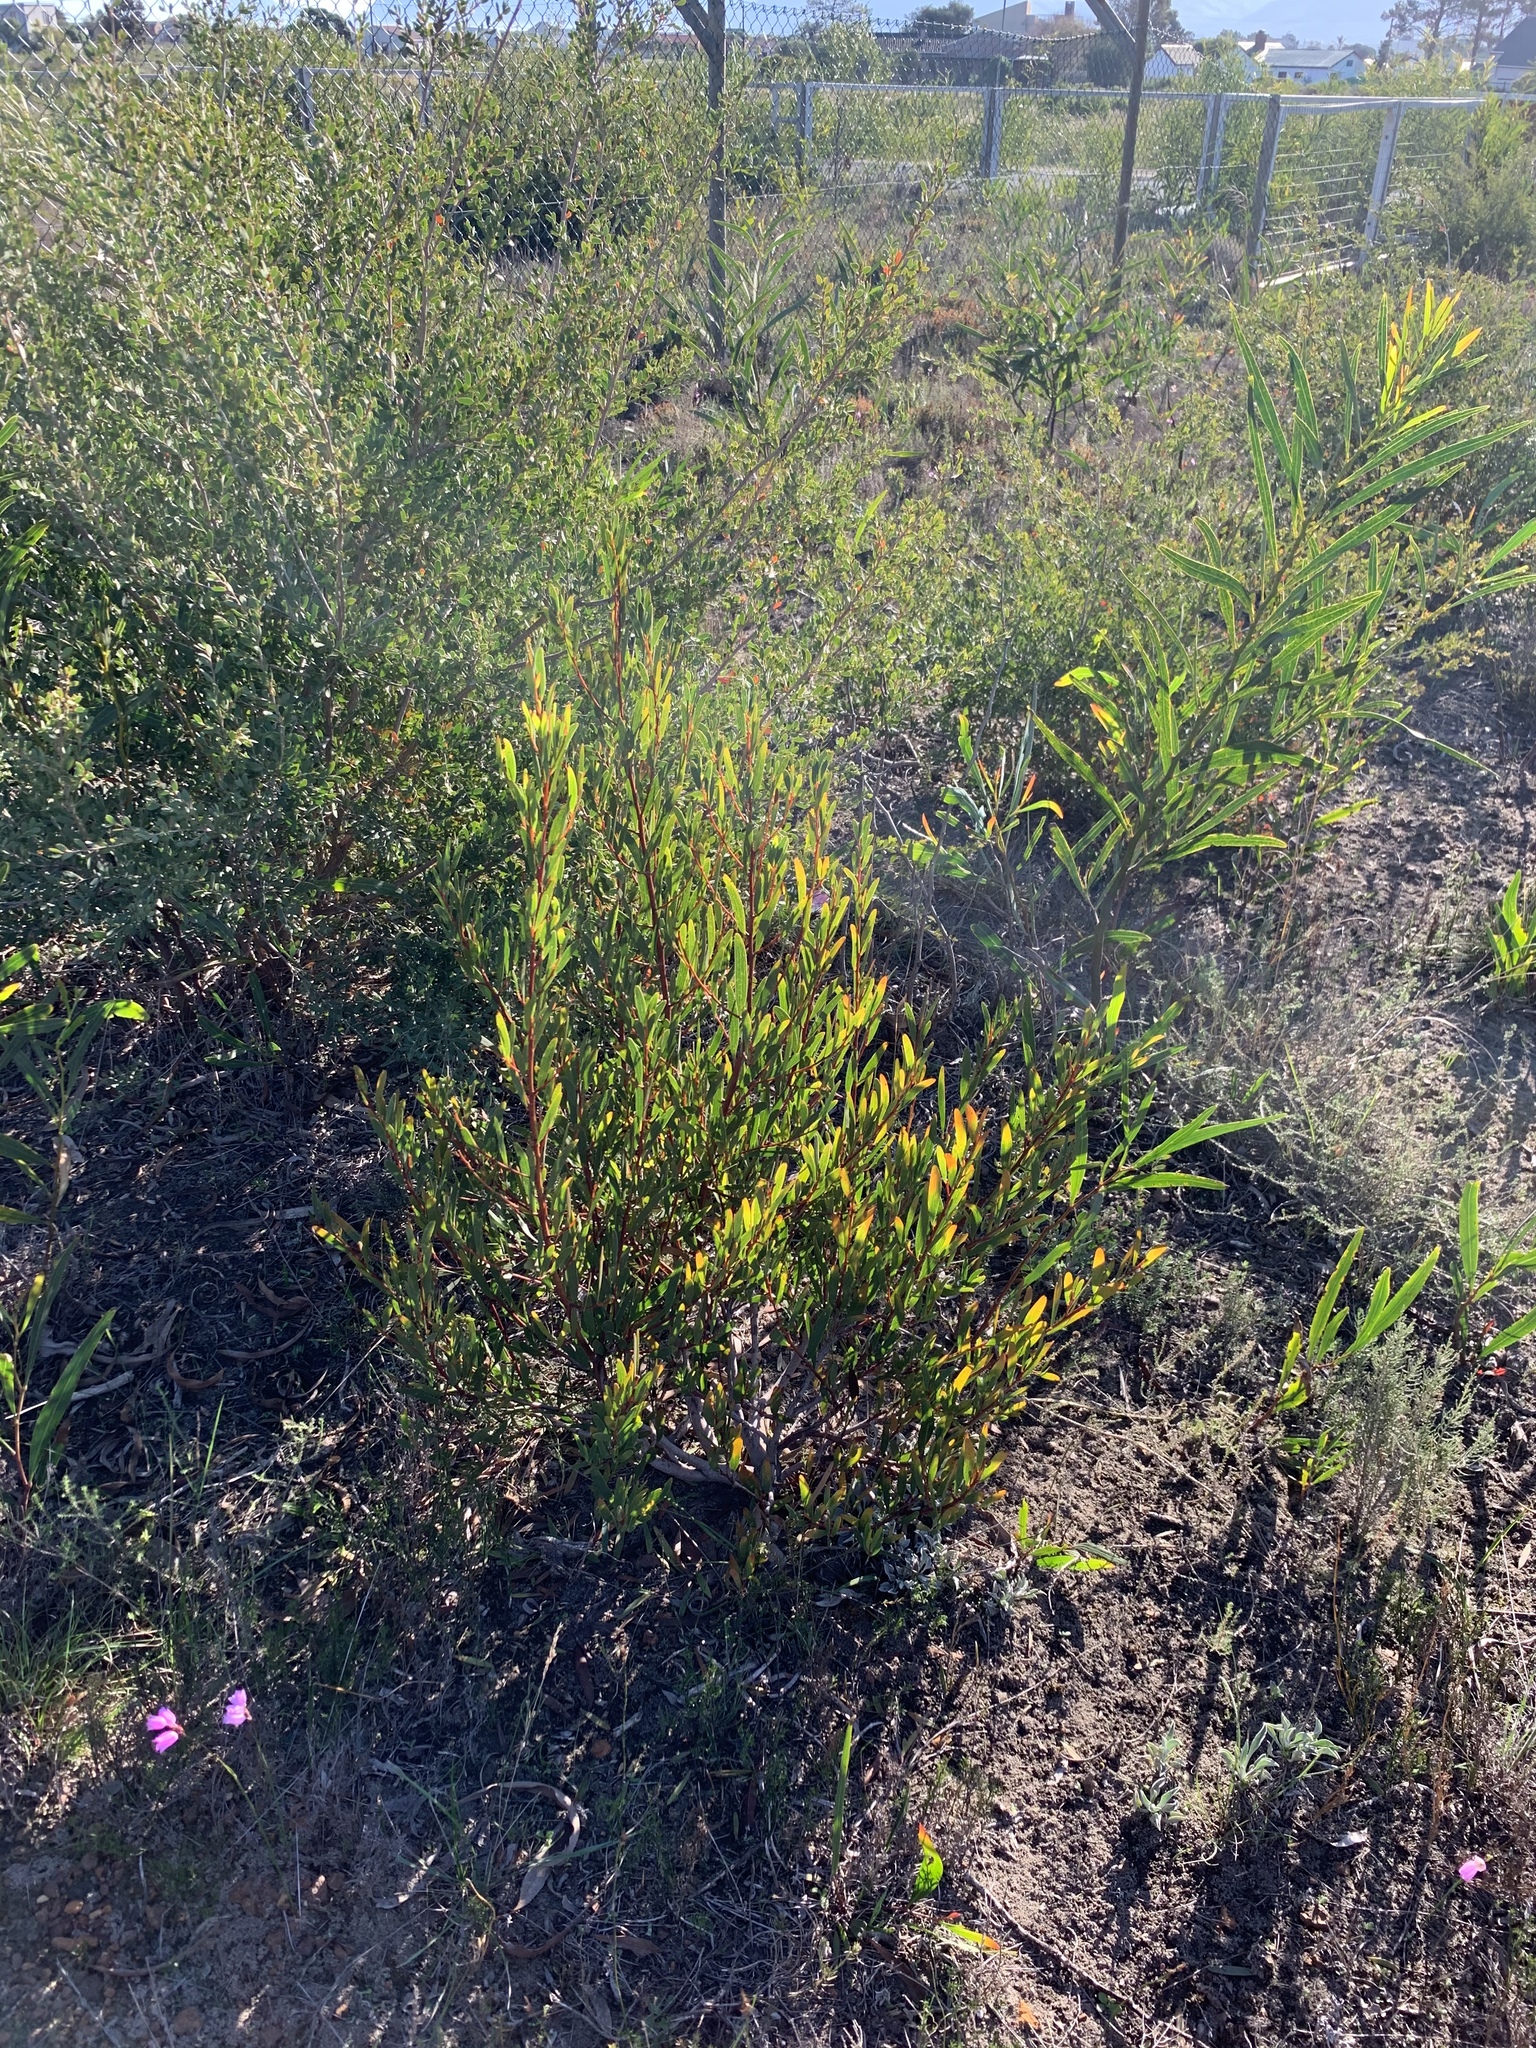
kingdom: Plantae
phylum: Tracheophyta
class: Magnoliopsida
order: Fabales
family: Fabaceae
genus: Acacia
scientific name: Acacia cyclops
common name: Coastal wattle
